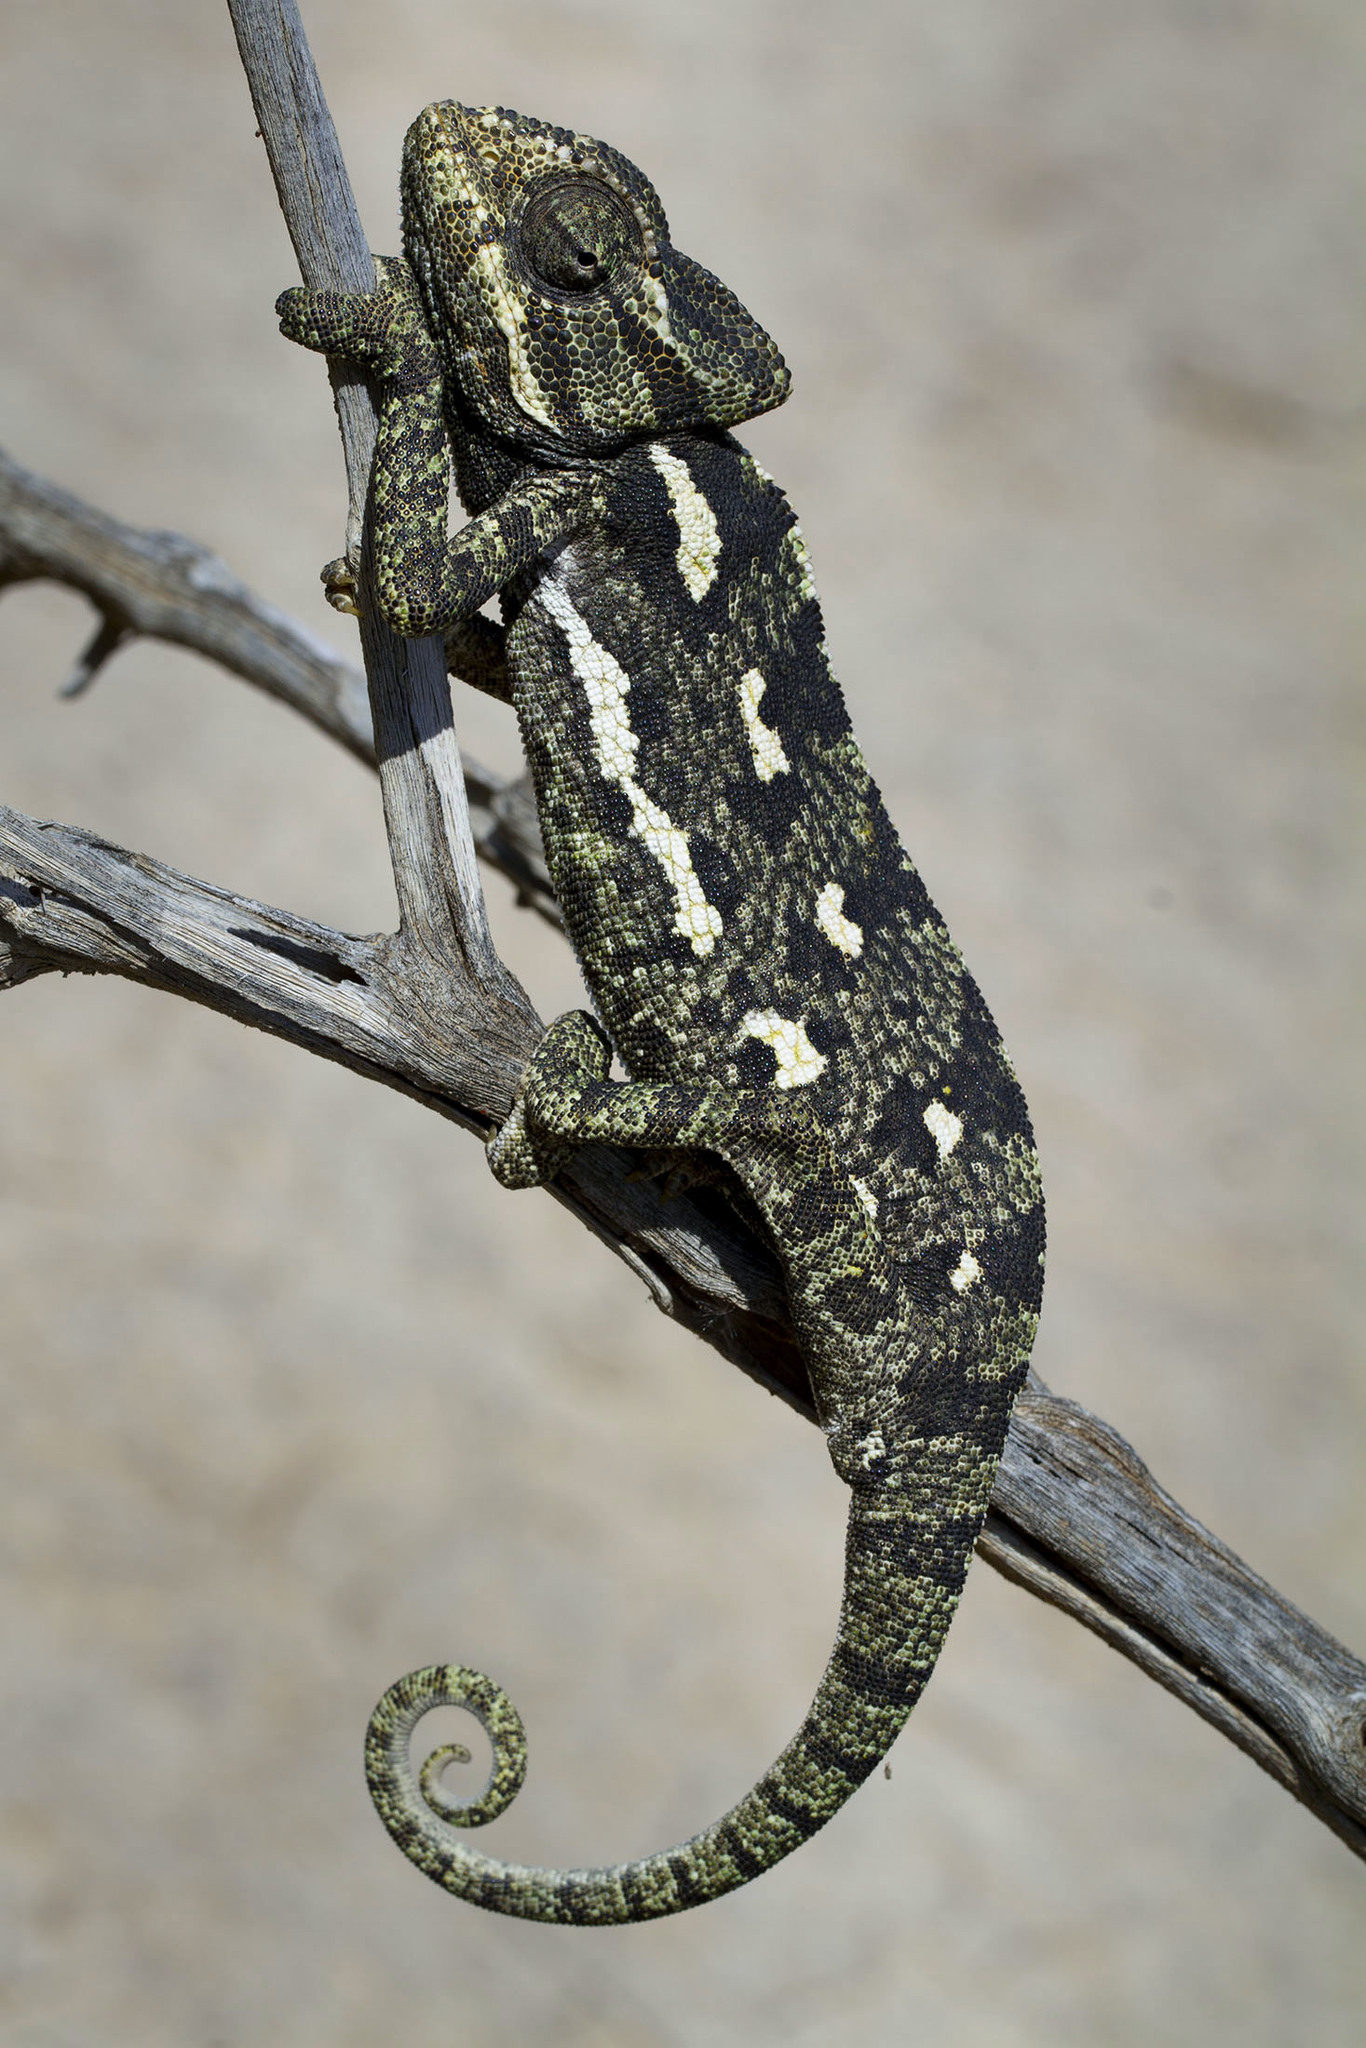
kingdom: Animalia
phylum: Chordata
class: Squamata
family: Chamaeleonidae
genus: Chamaeleo
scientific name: Chamaeleo chamaeleon
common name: Mediterranean chameleon
